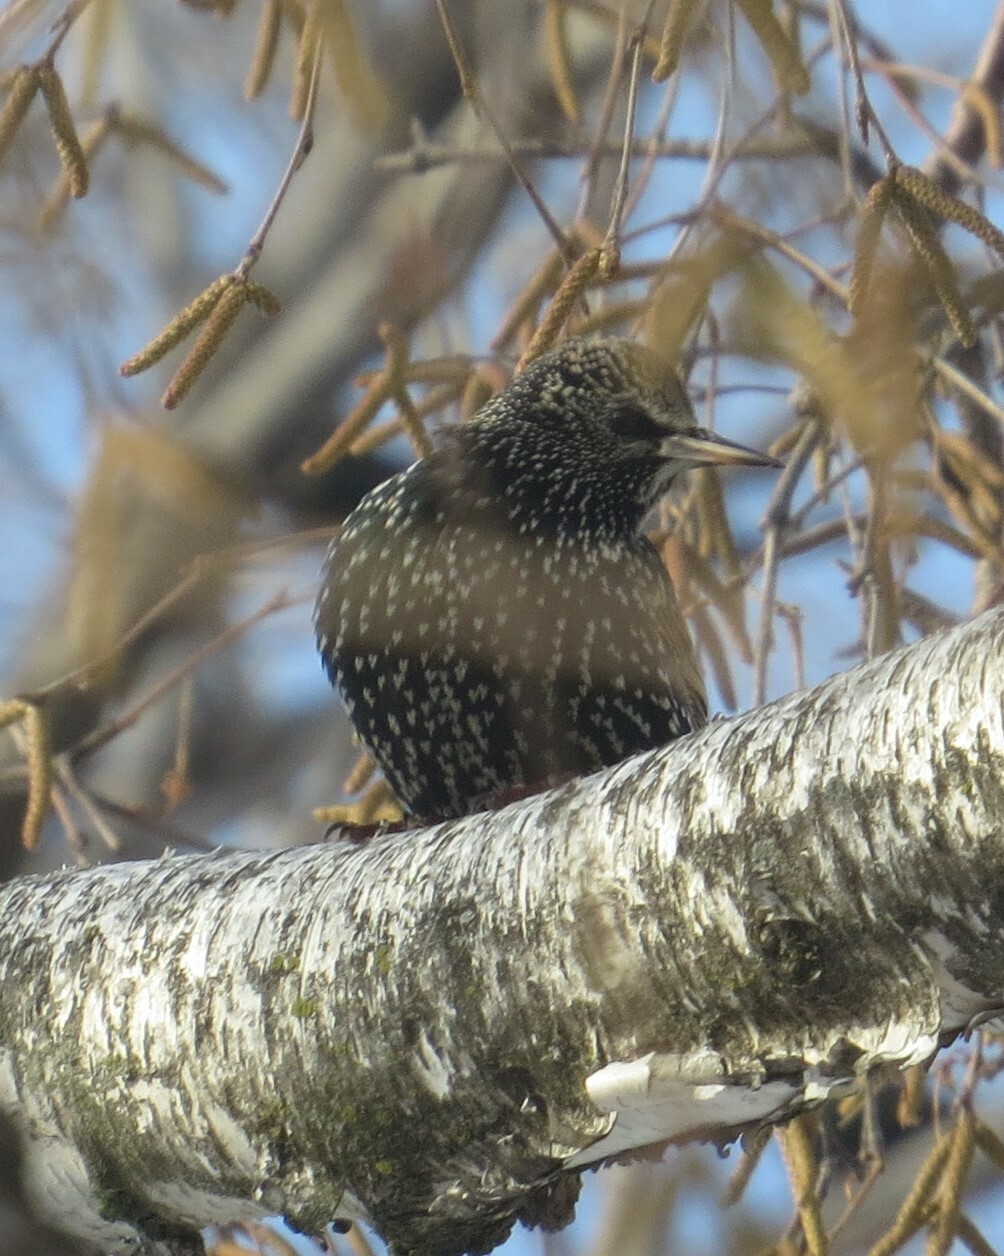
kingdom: Animalia
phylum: Chordata
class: Aves
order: Passeriformes
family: Sturnidae
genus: Sturnus
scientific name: Sturnus vulgaris
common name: Common starling
